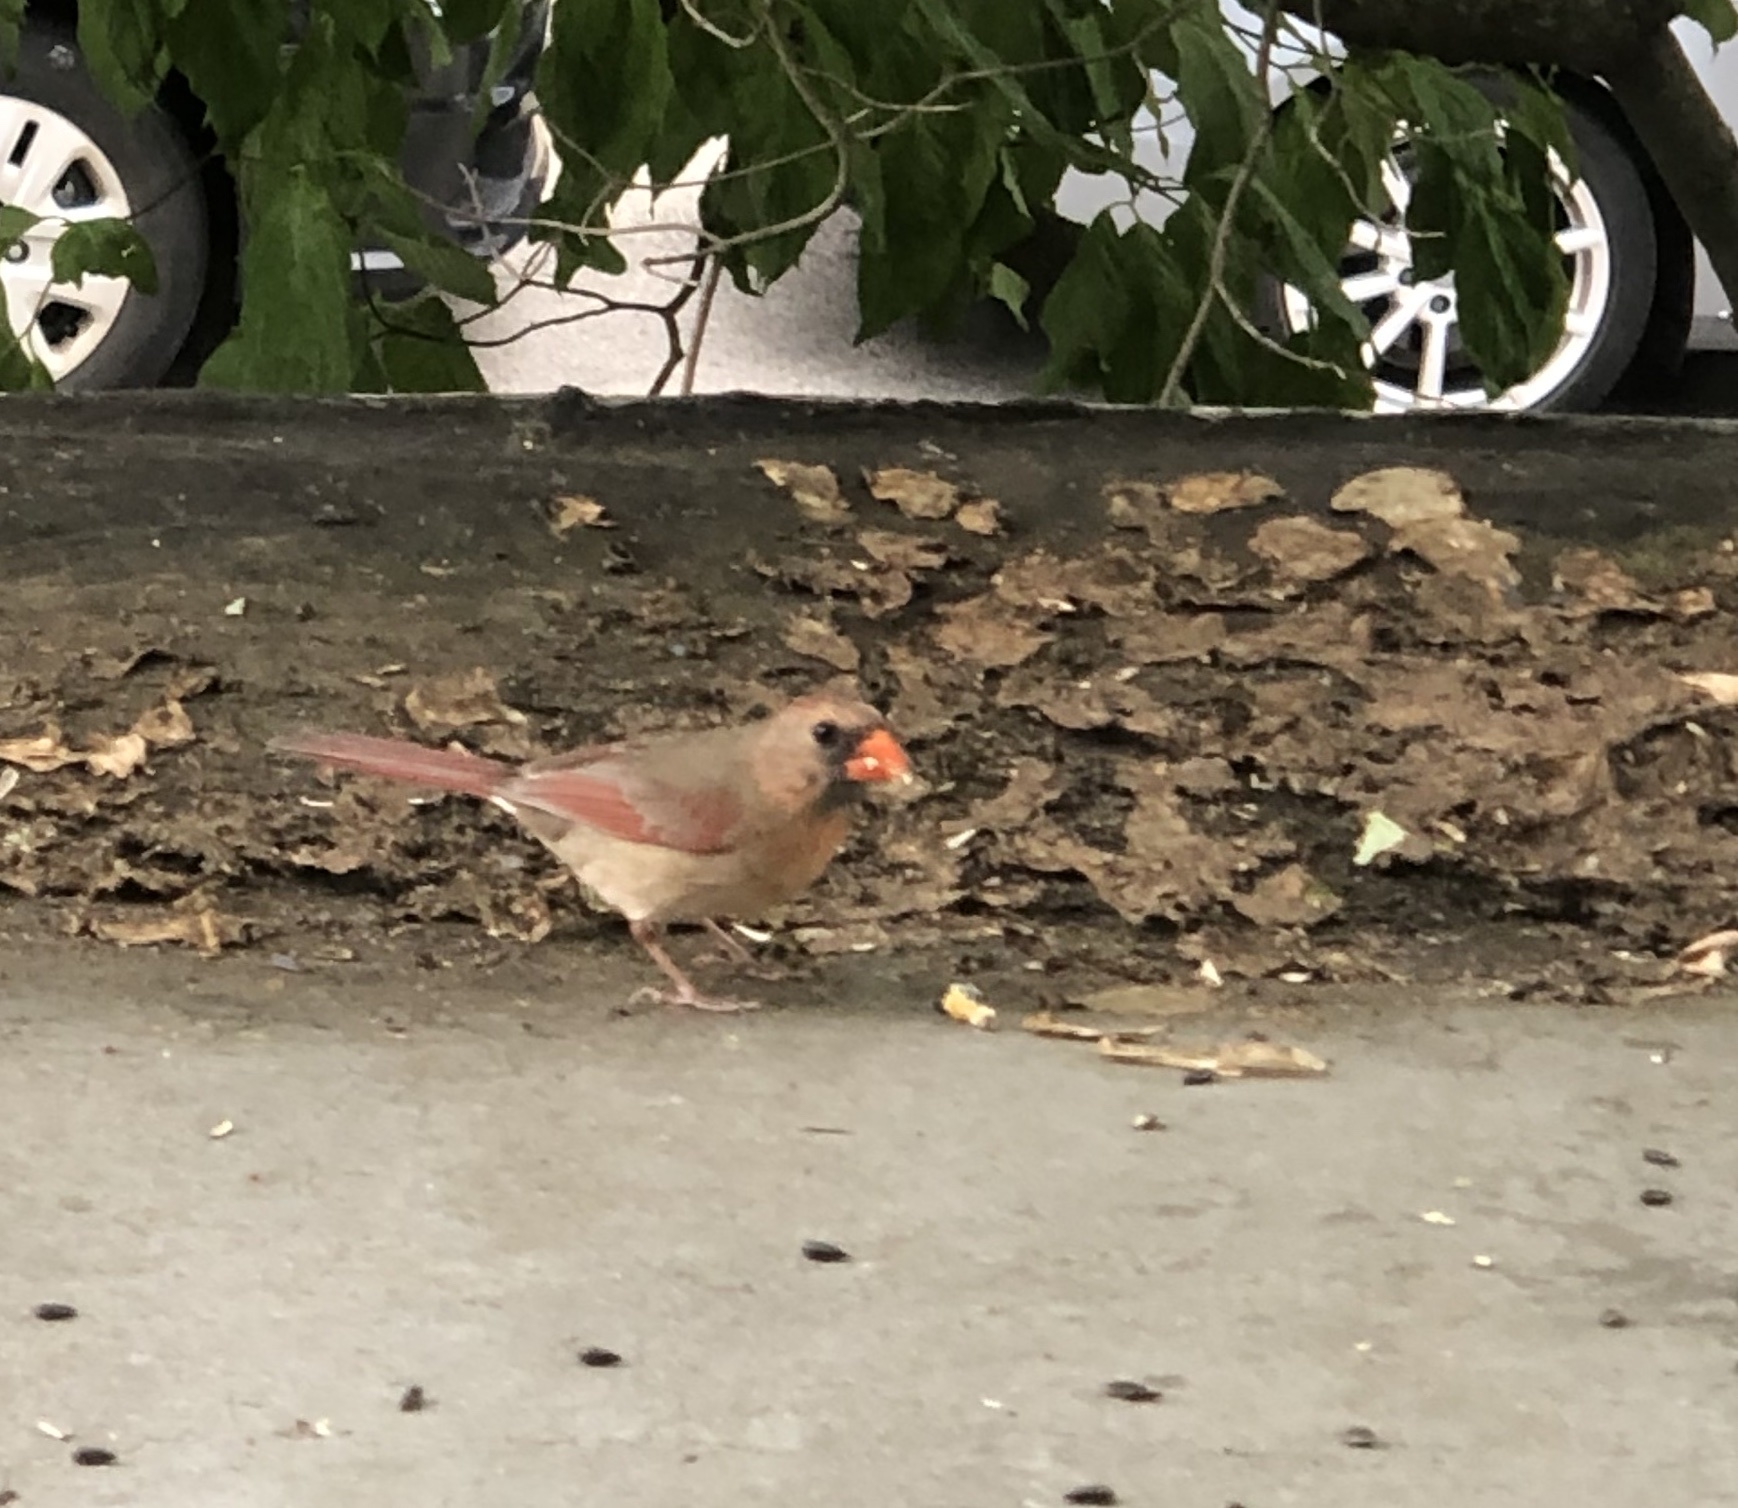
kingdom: Animalia
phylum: Chordata
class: Aves
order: Passeriformes
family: Cardinalidae
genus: Cardinalis
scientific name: Cardinalis cardinalis
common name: Northern cardinal
